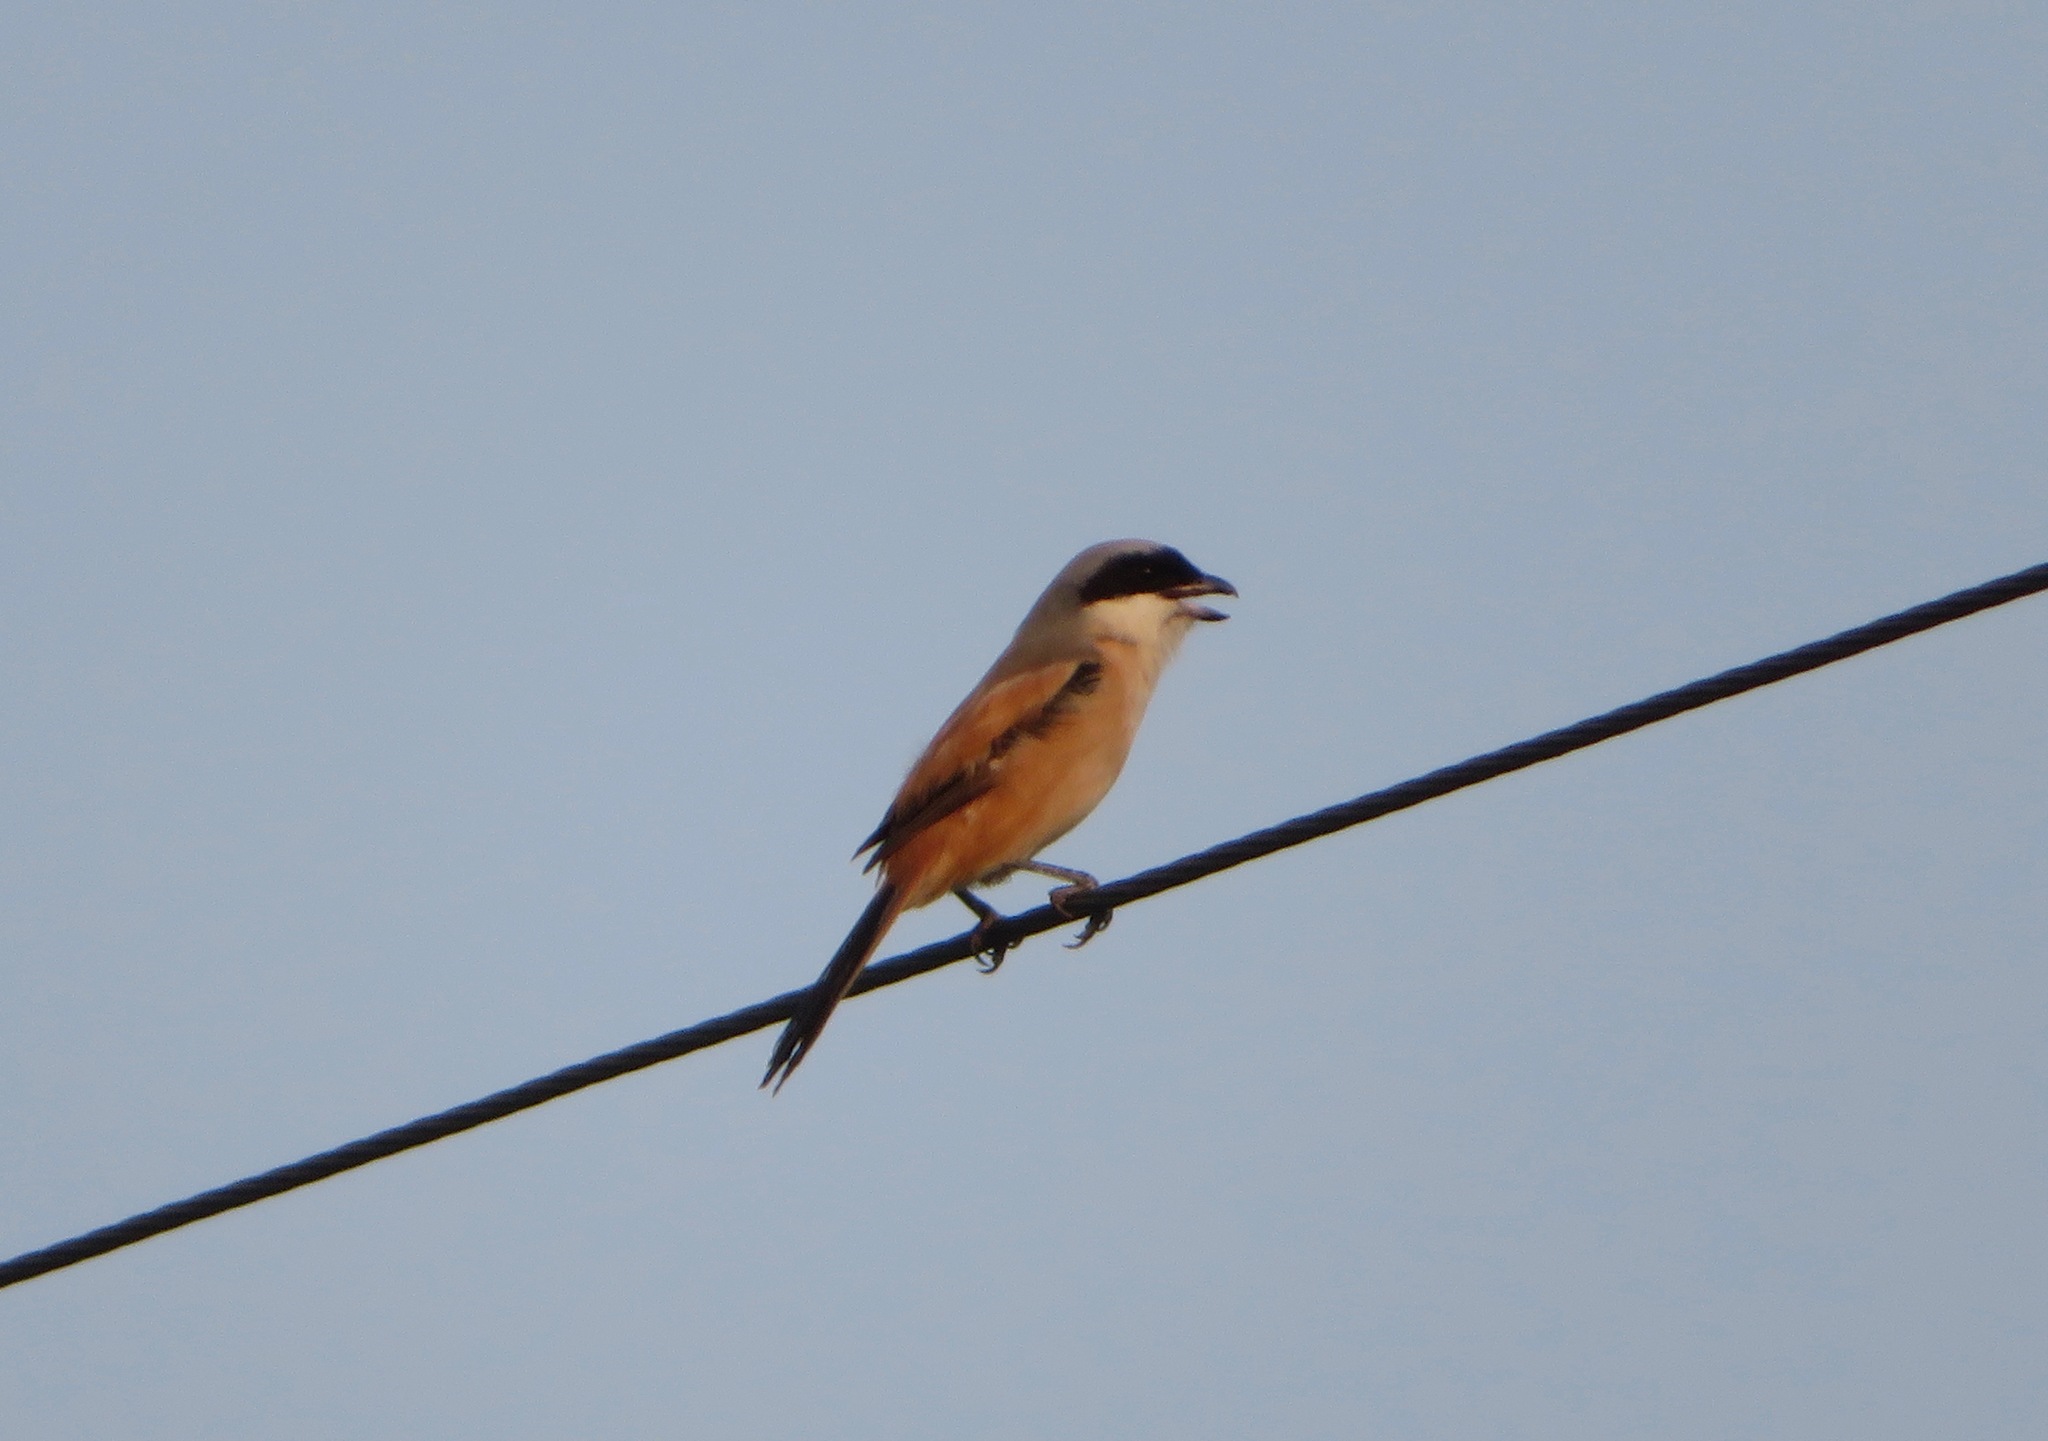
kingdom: Animalia
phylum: Chordata
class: Aves
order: Passeriformes
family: Laniidae
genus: Lanius
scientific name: Lanius schach
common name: Long-tailed shrike
